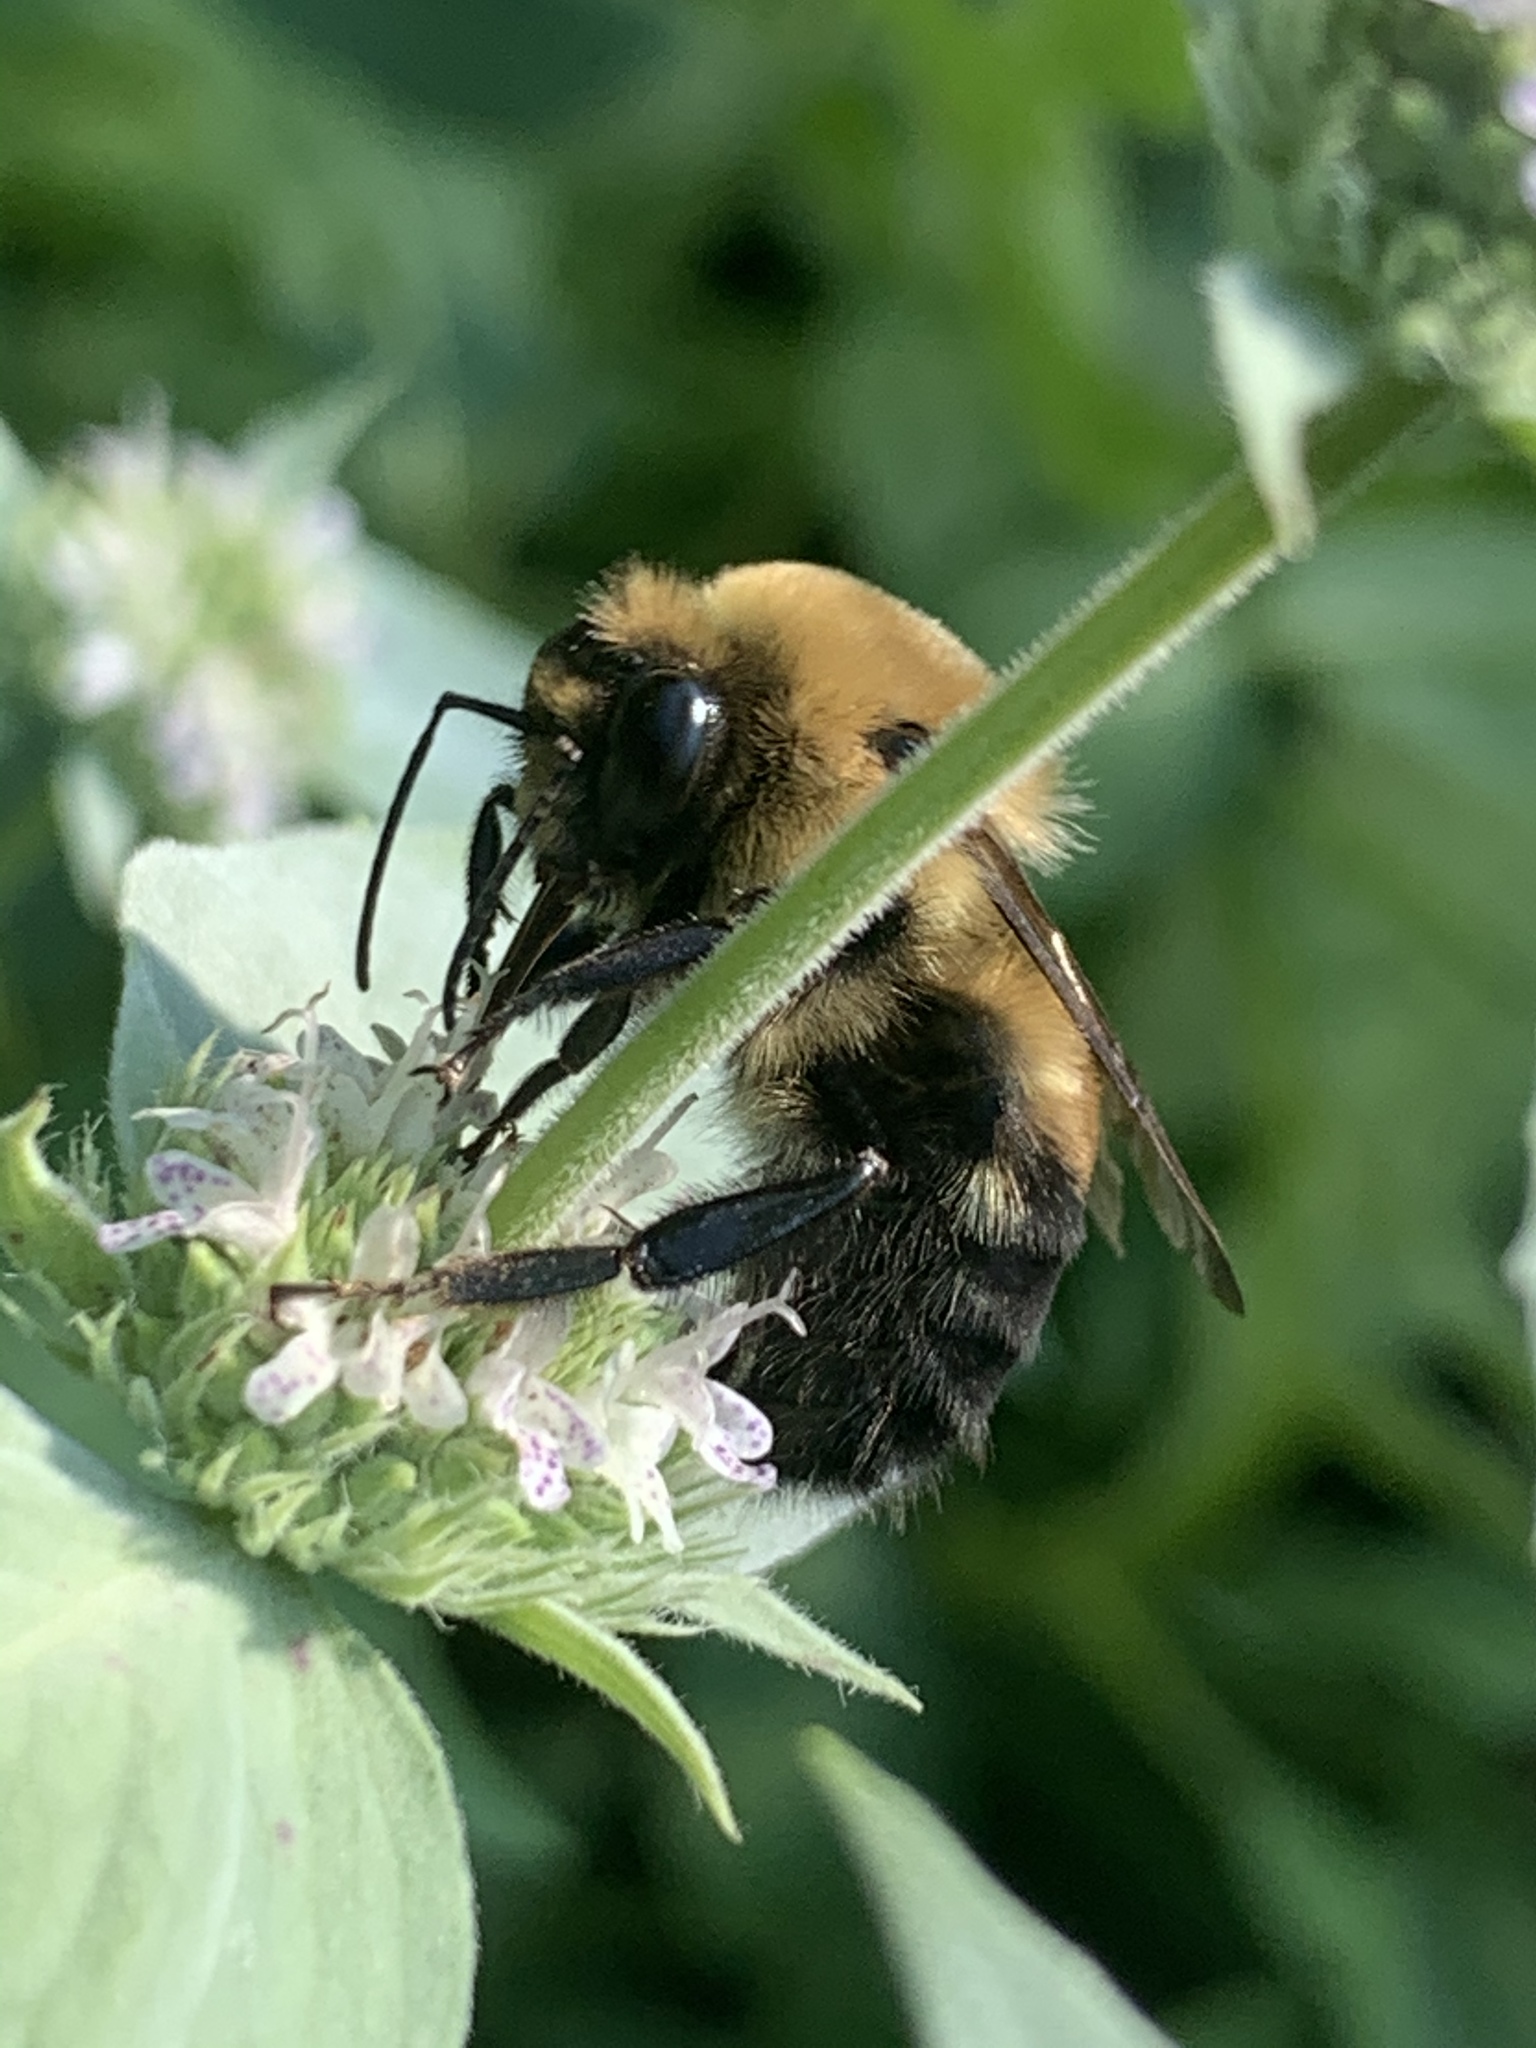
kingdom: Animalia
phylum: Arthropoda
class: Insecta
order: Hymenoptera
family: Apidae
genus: Bombus
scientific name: Bombus griseocollis
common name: Brown-belted bumble bee
